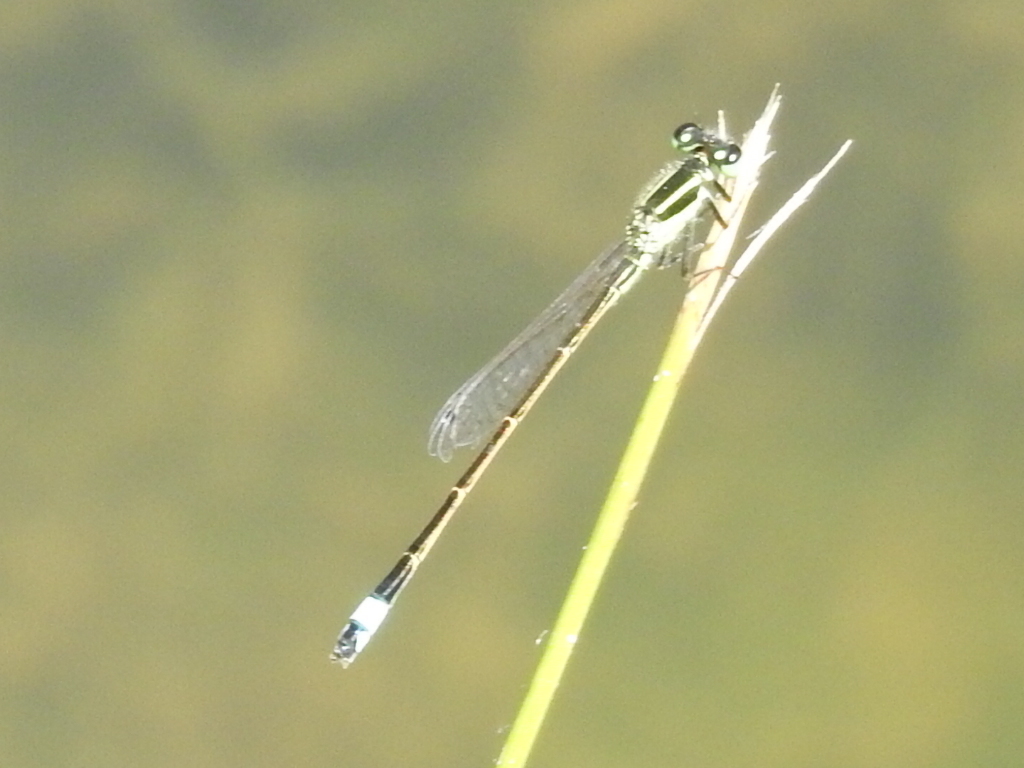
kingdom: Animalia
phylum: Arthropoda
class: Insecta
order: Odonata
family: Coenagrionidae
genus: Ischnura
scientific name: Ischnura ramburii
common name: Rambur's forktail
